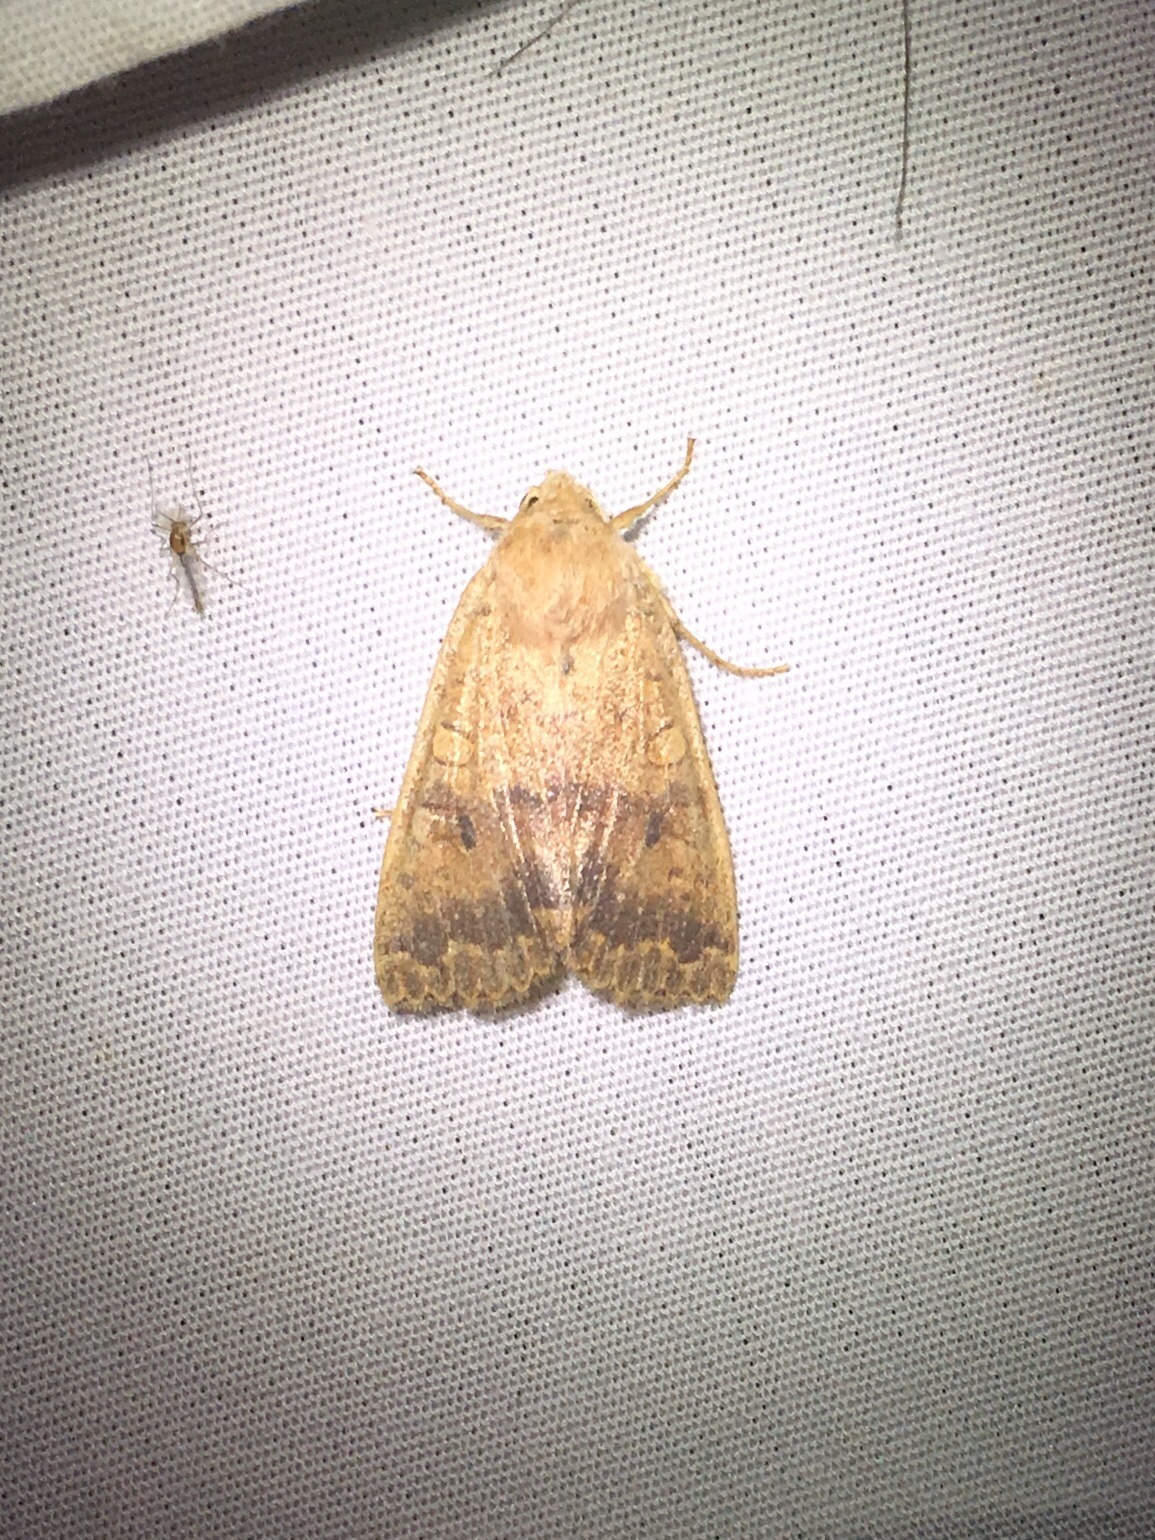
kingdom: Animalia
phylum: Arthropoda
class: Insecta
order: Lepidoptera
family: Noctuidae
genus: Agrochola
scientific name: Agrochola bicolorago
